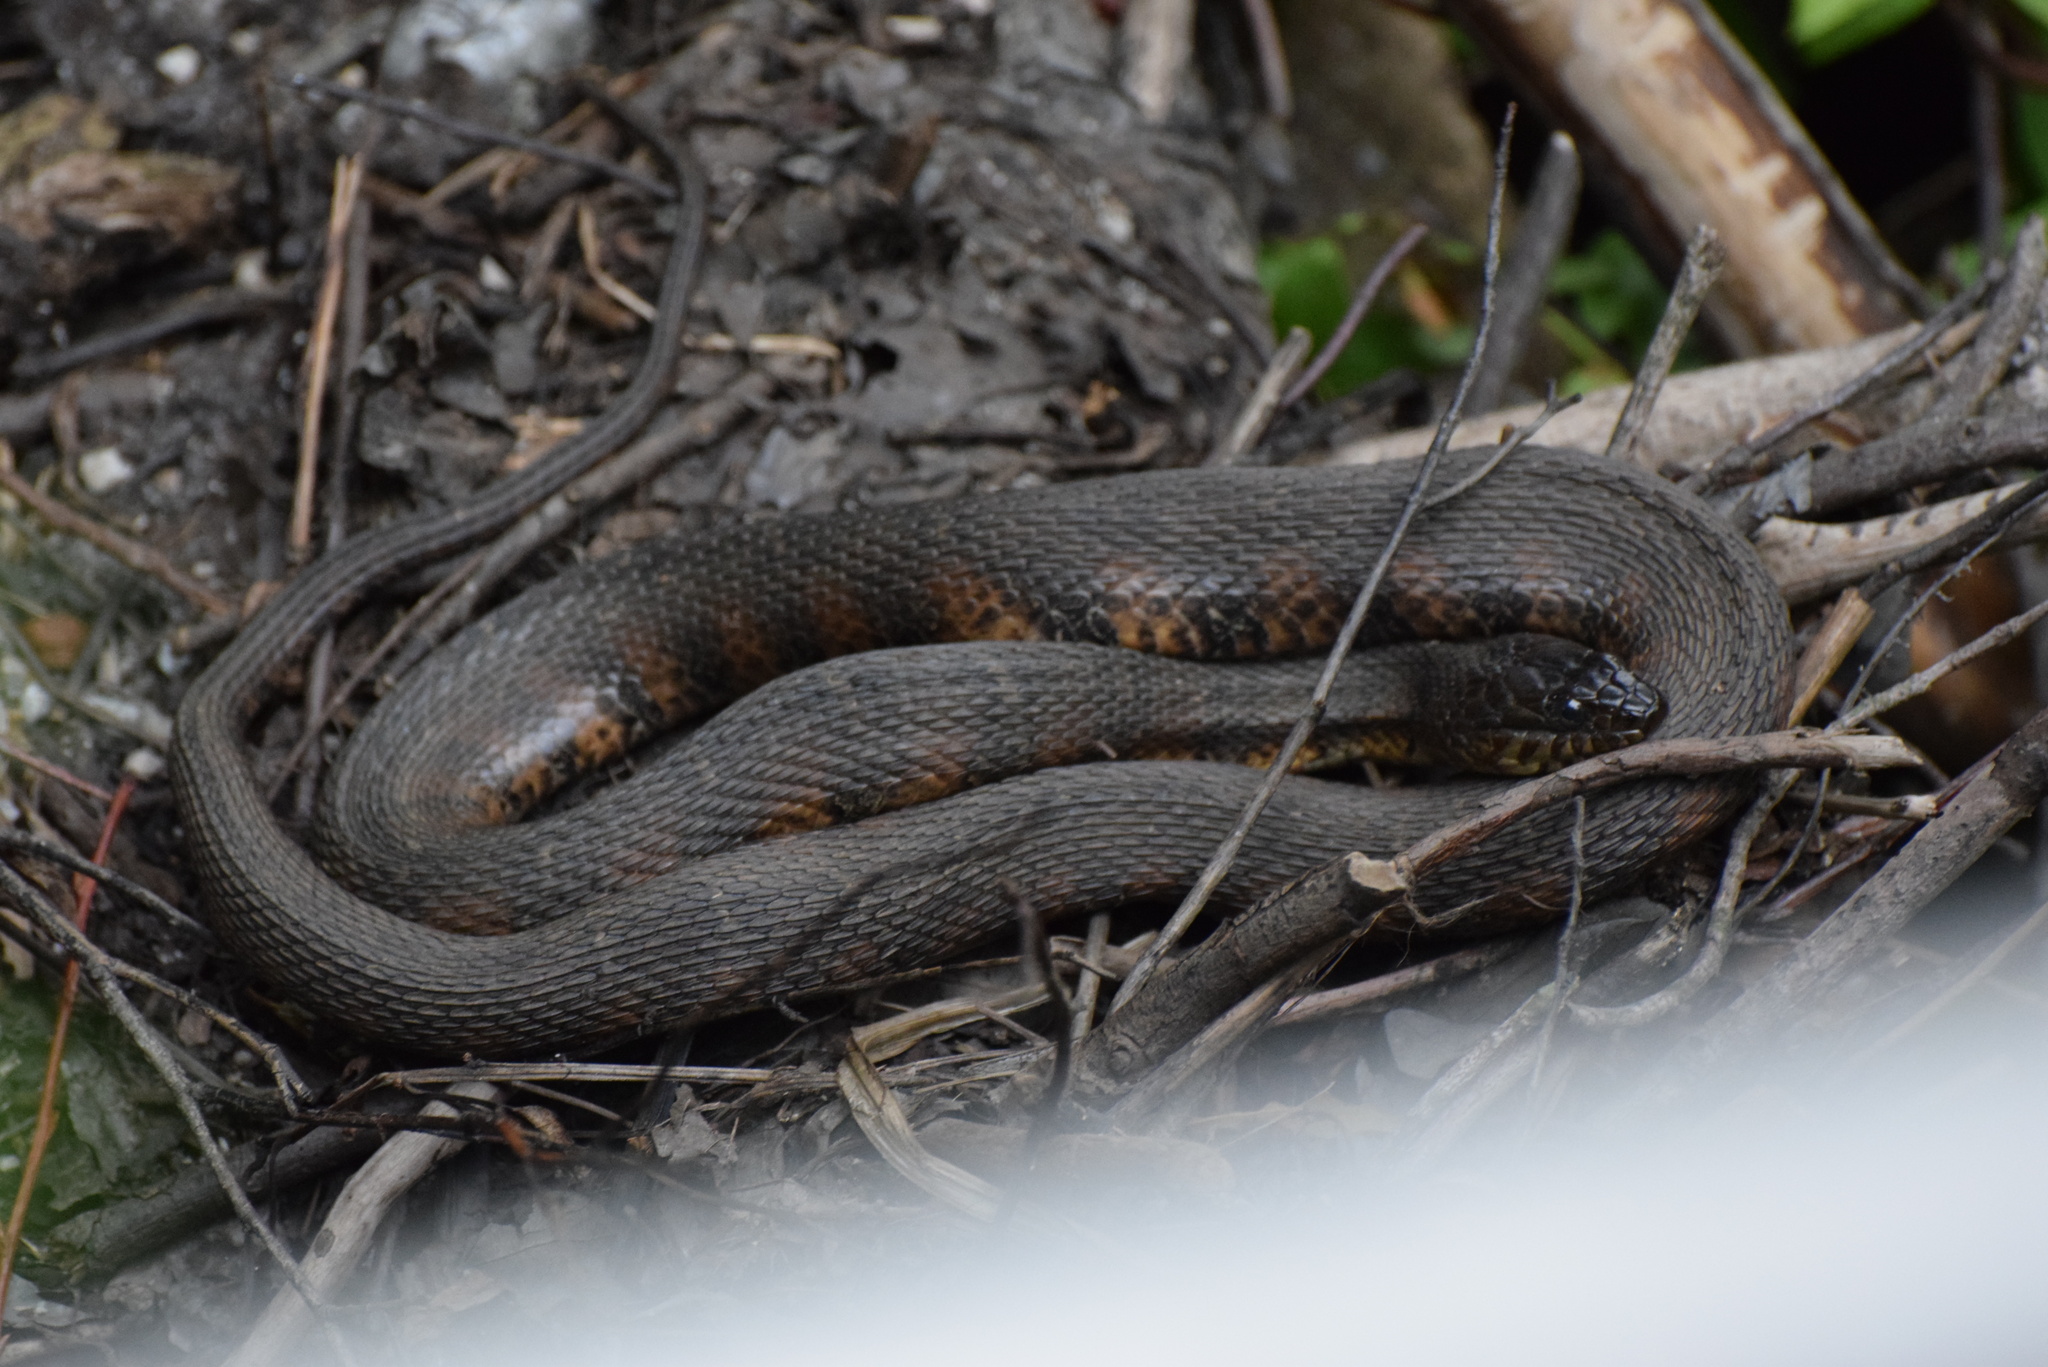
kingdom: Animalia
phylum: Chordata
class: Squamata
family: Colubridae
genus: Nerodia
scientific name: Nerodia sipedon
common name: Northern water snake
